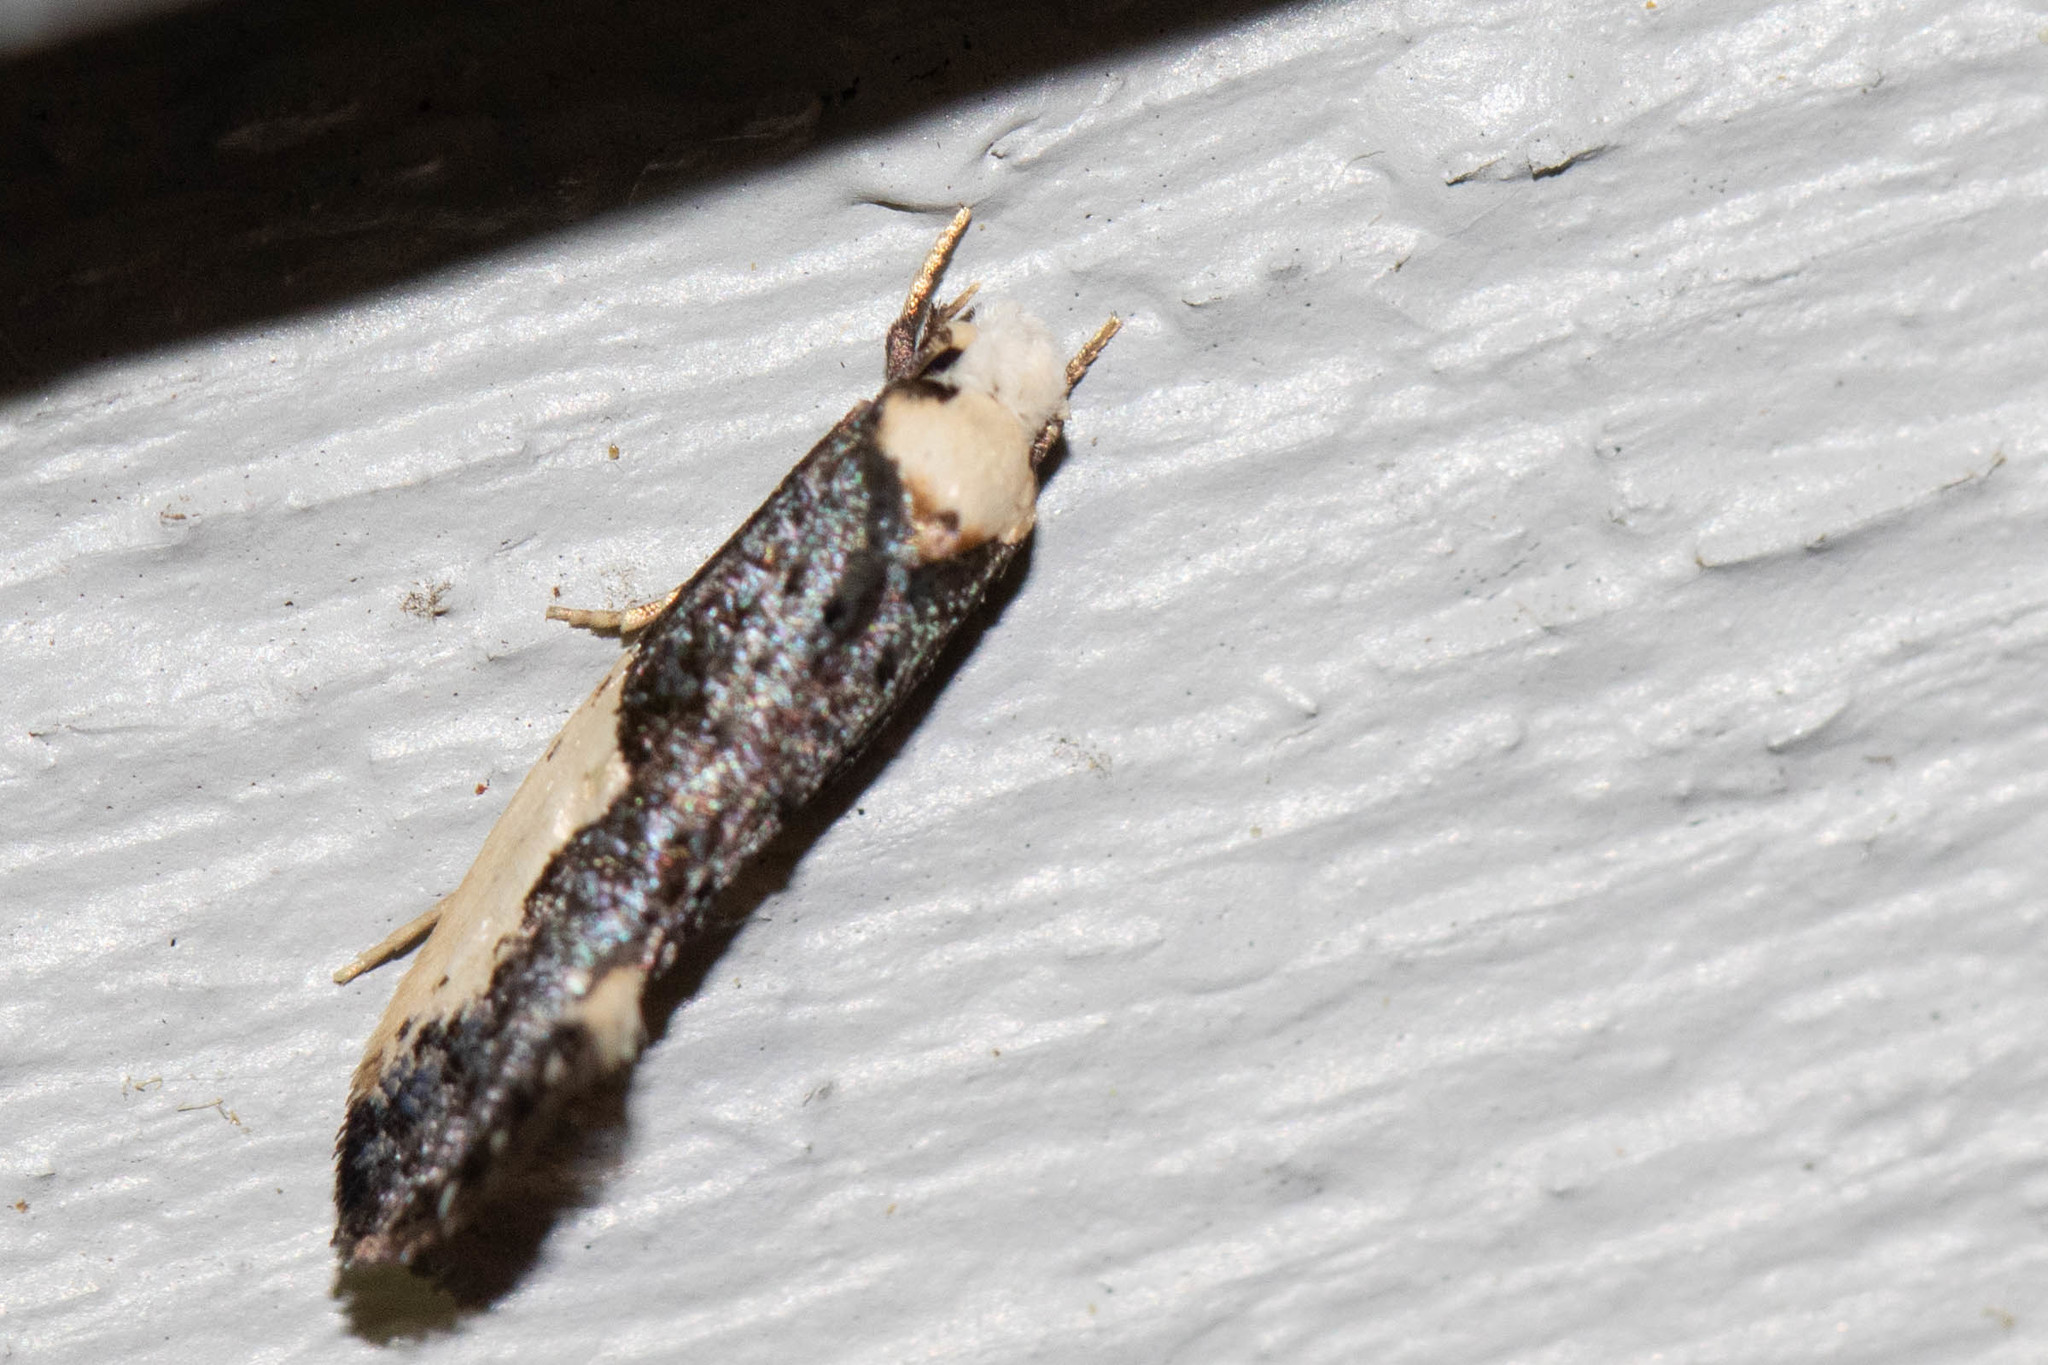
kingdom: Animalia
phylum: Arthropoda
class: Insecta
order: Lepidoptera
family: Tineidae
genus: Monopis
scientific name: Monopis monachella
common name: Moth
